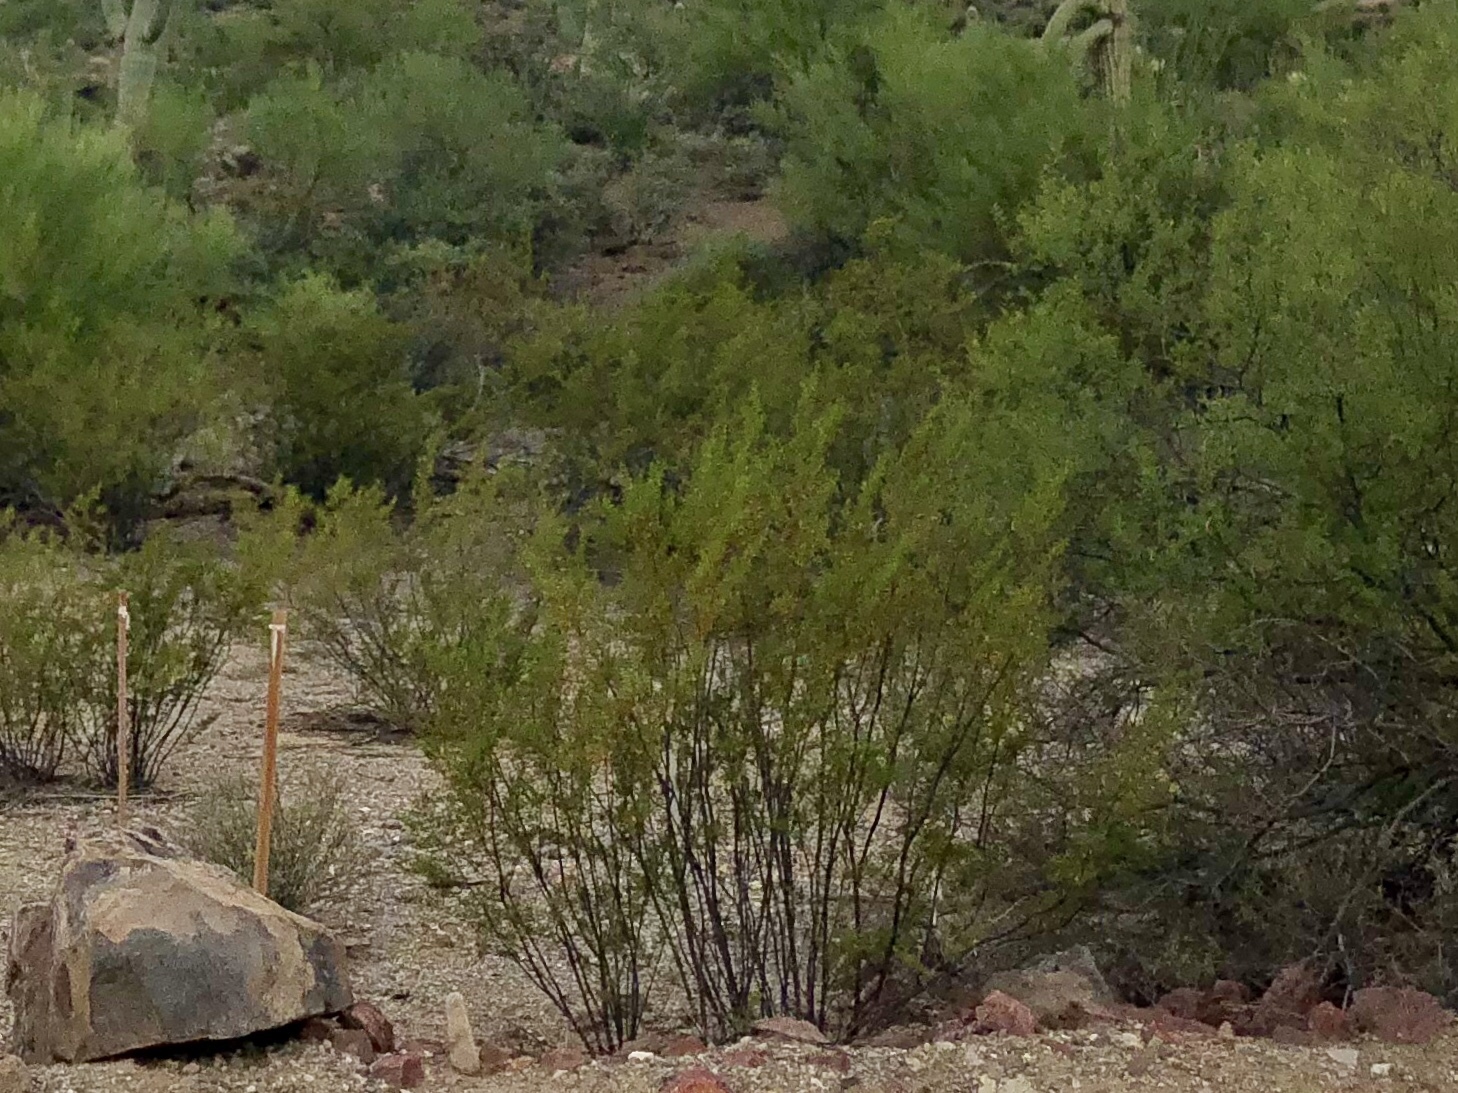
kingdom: Plantae
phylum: Tracheophyta
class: Magnoliopsida
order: Zygophyllales
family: Zygophyllaceae
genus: Larrea
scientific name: Larrea tridentata
